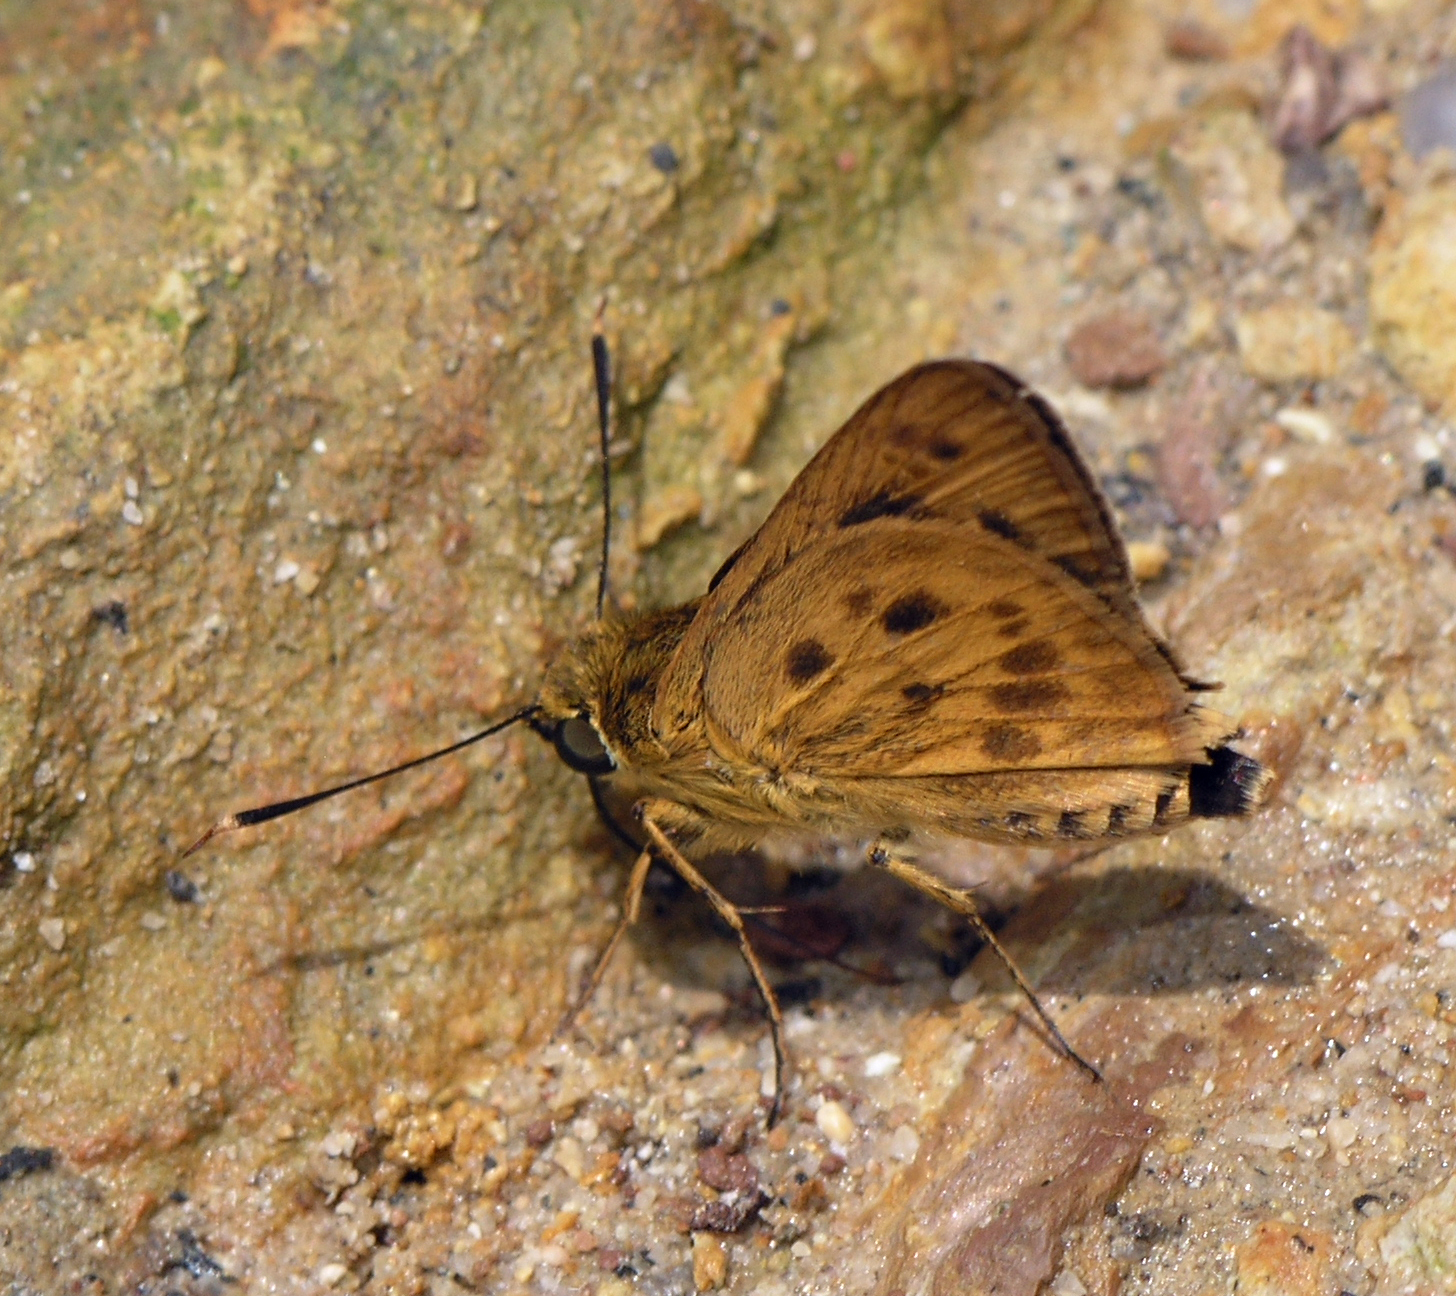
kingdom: Animalia
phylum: Arthropoda
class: Insecta
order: Lepidoptera
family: Hesperiidae
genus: Thoressa
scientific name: Thoressa masoni
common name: Golden ace
